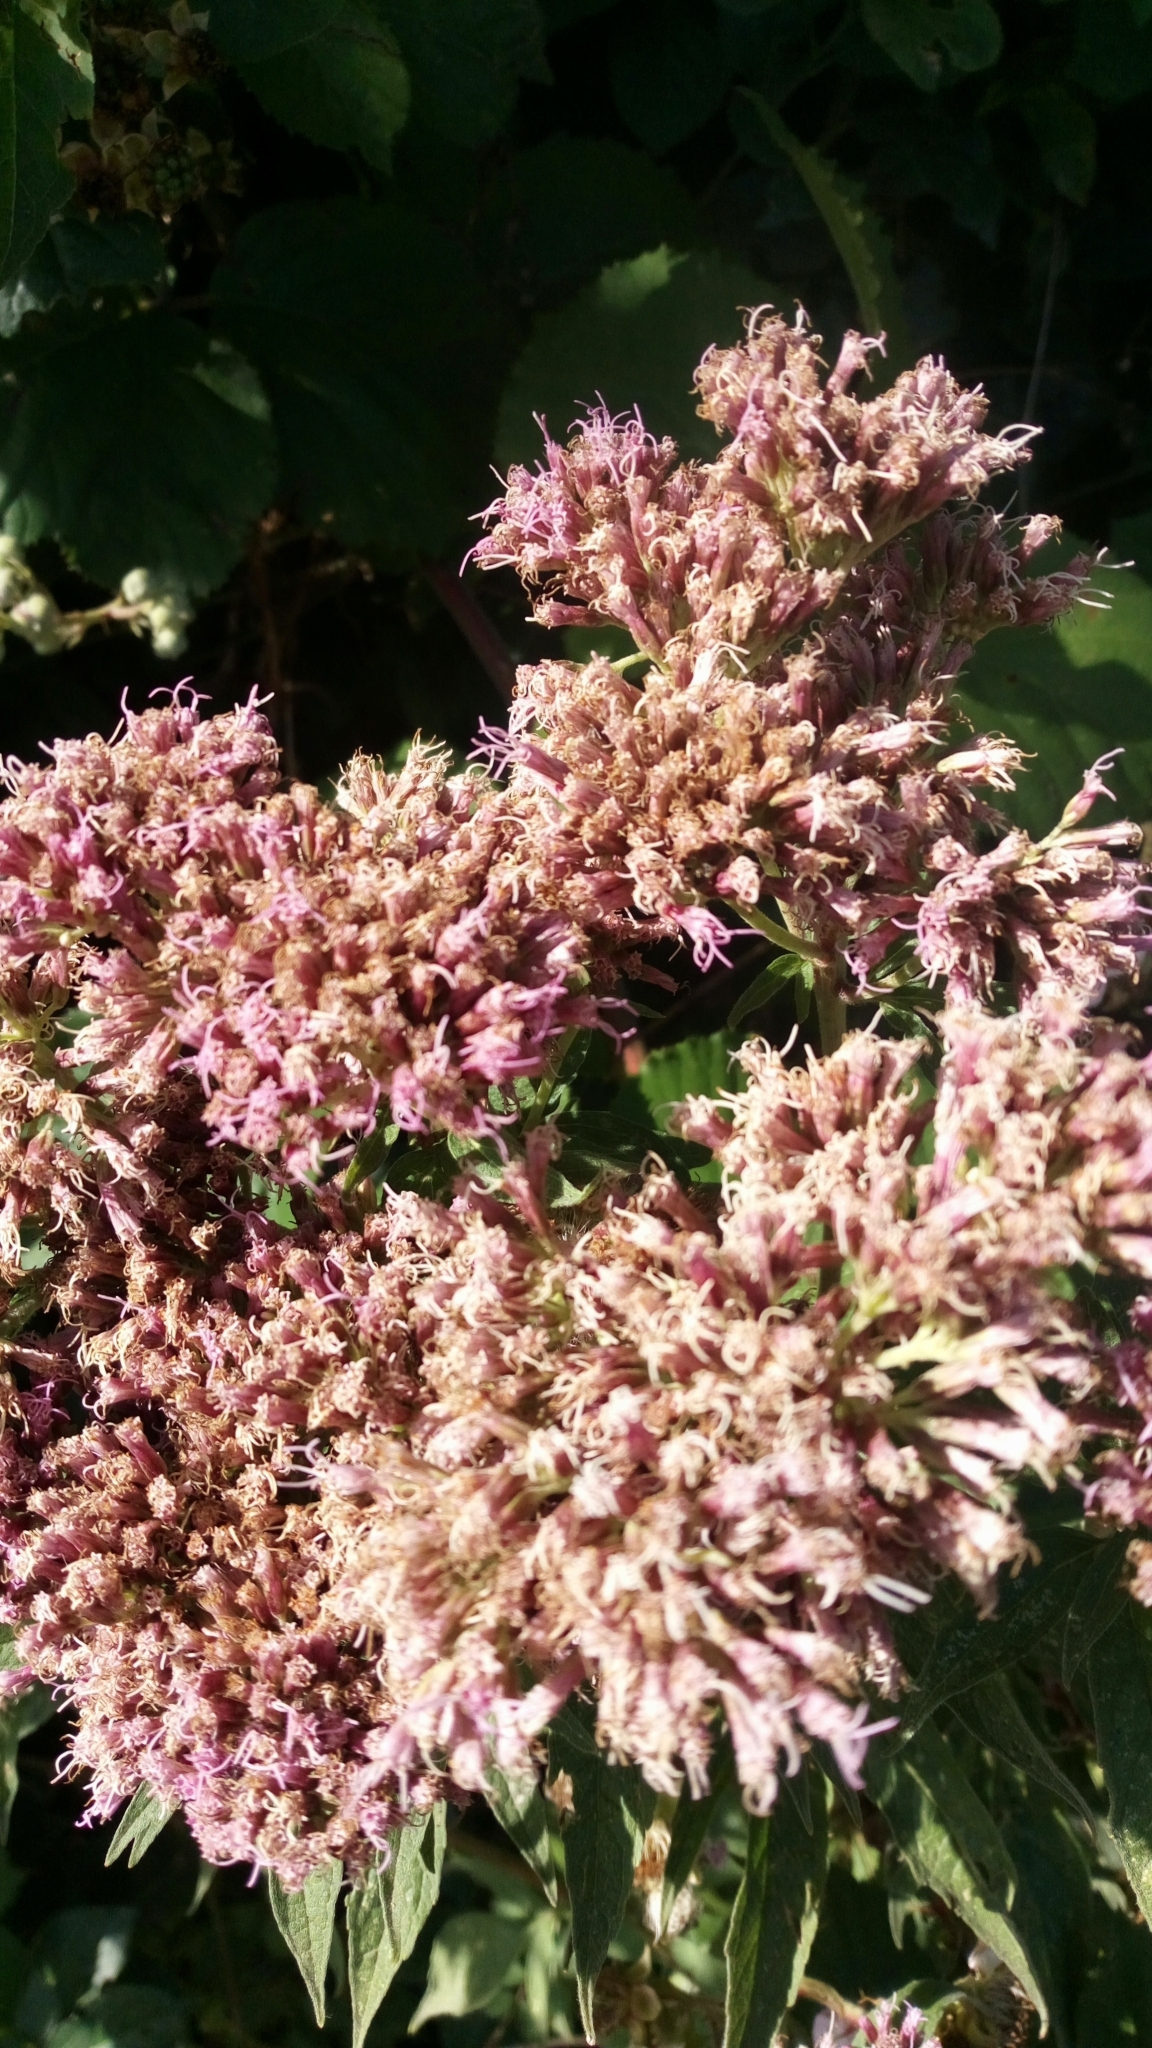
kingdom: Plantae
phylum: Tracheophyta
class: Magnoliopsida
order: Asterales
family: Asteraceae
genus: Eupatorium
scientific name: Eupatorium cannabinum
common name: Hemp-agrimony
